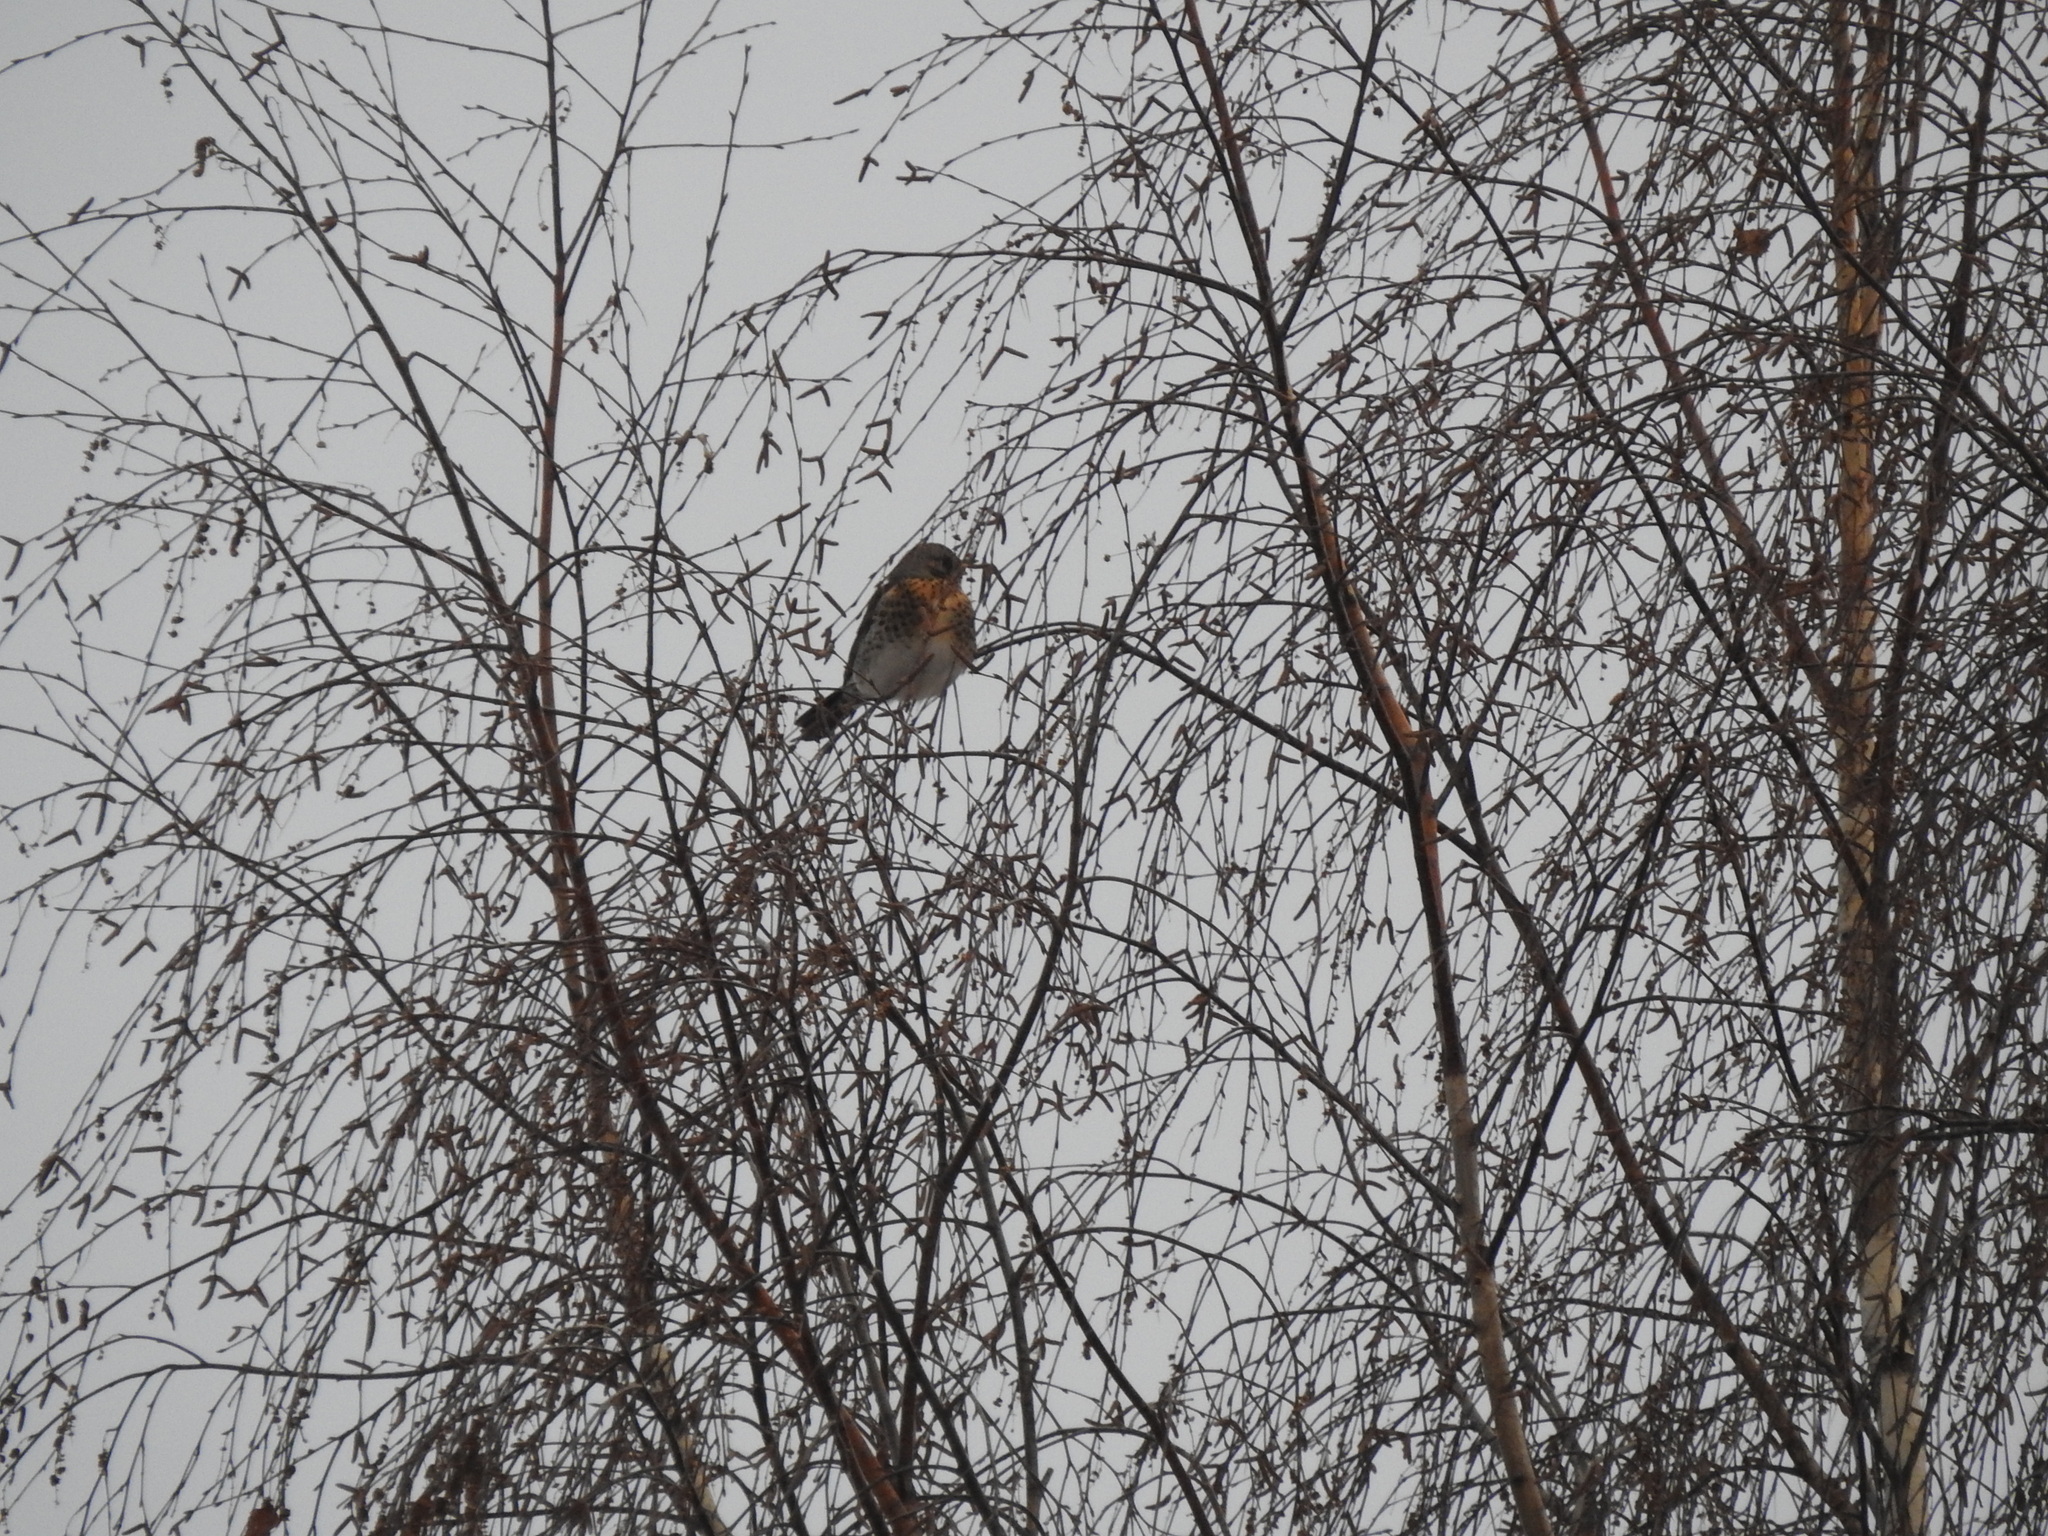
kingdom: Animalia
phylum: Chordata
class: Aves
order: Passeriformes
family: Turdidae
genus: Turdus
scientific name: Turdus pilaris
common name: Fieldfare
